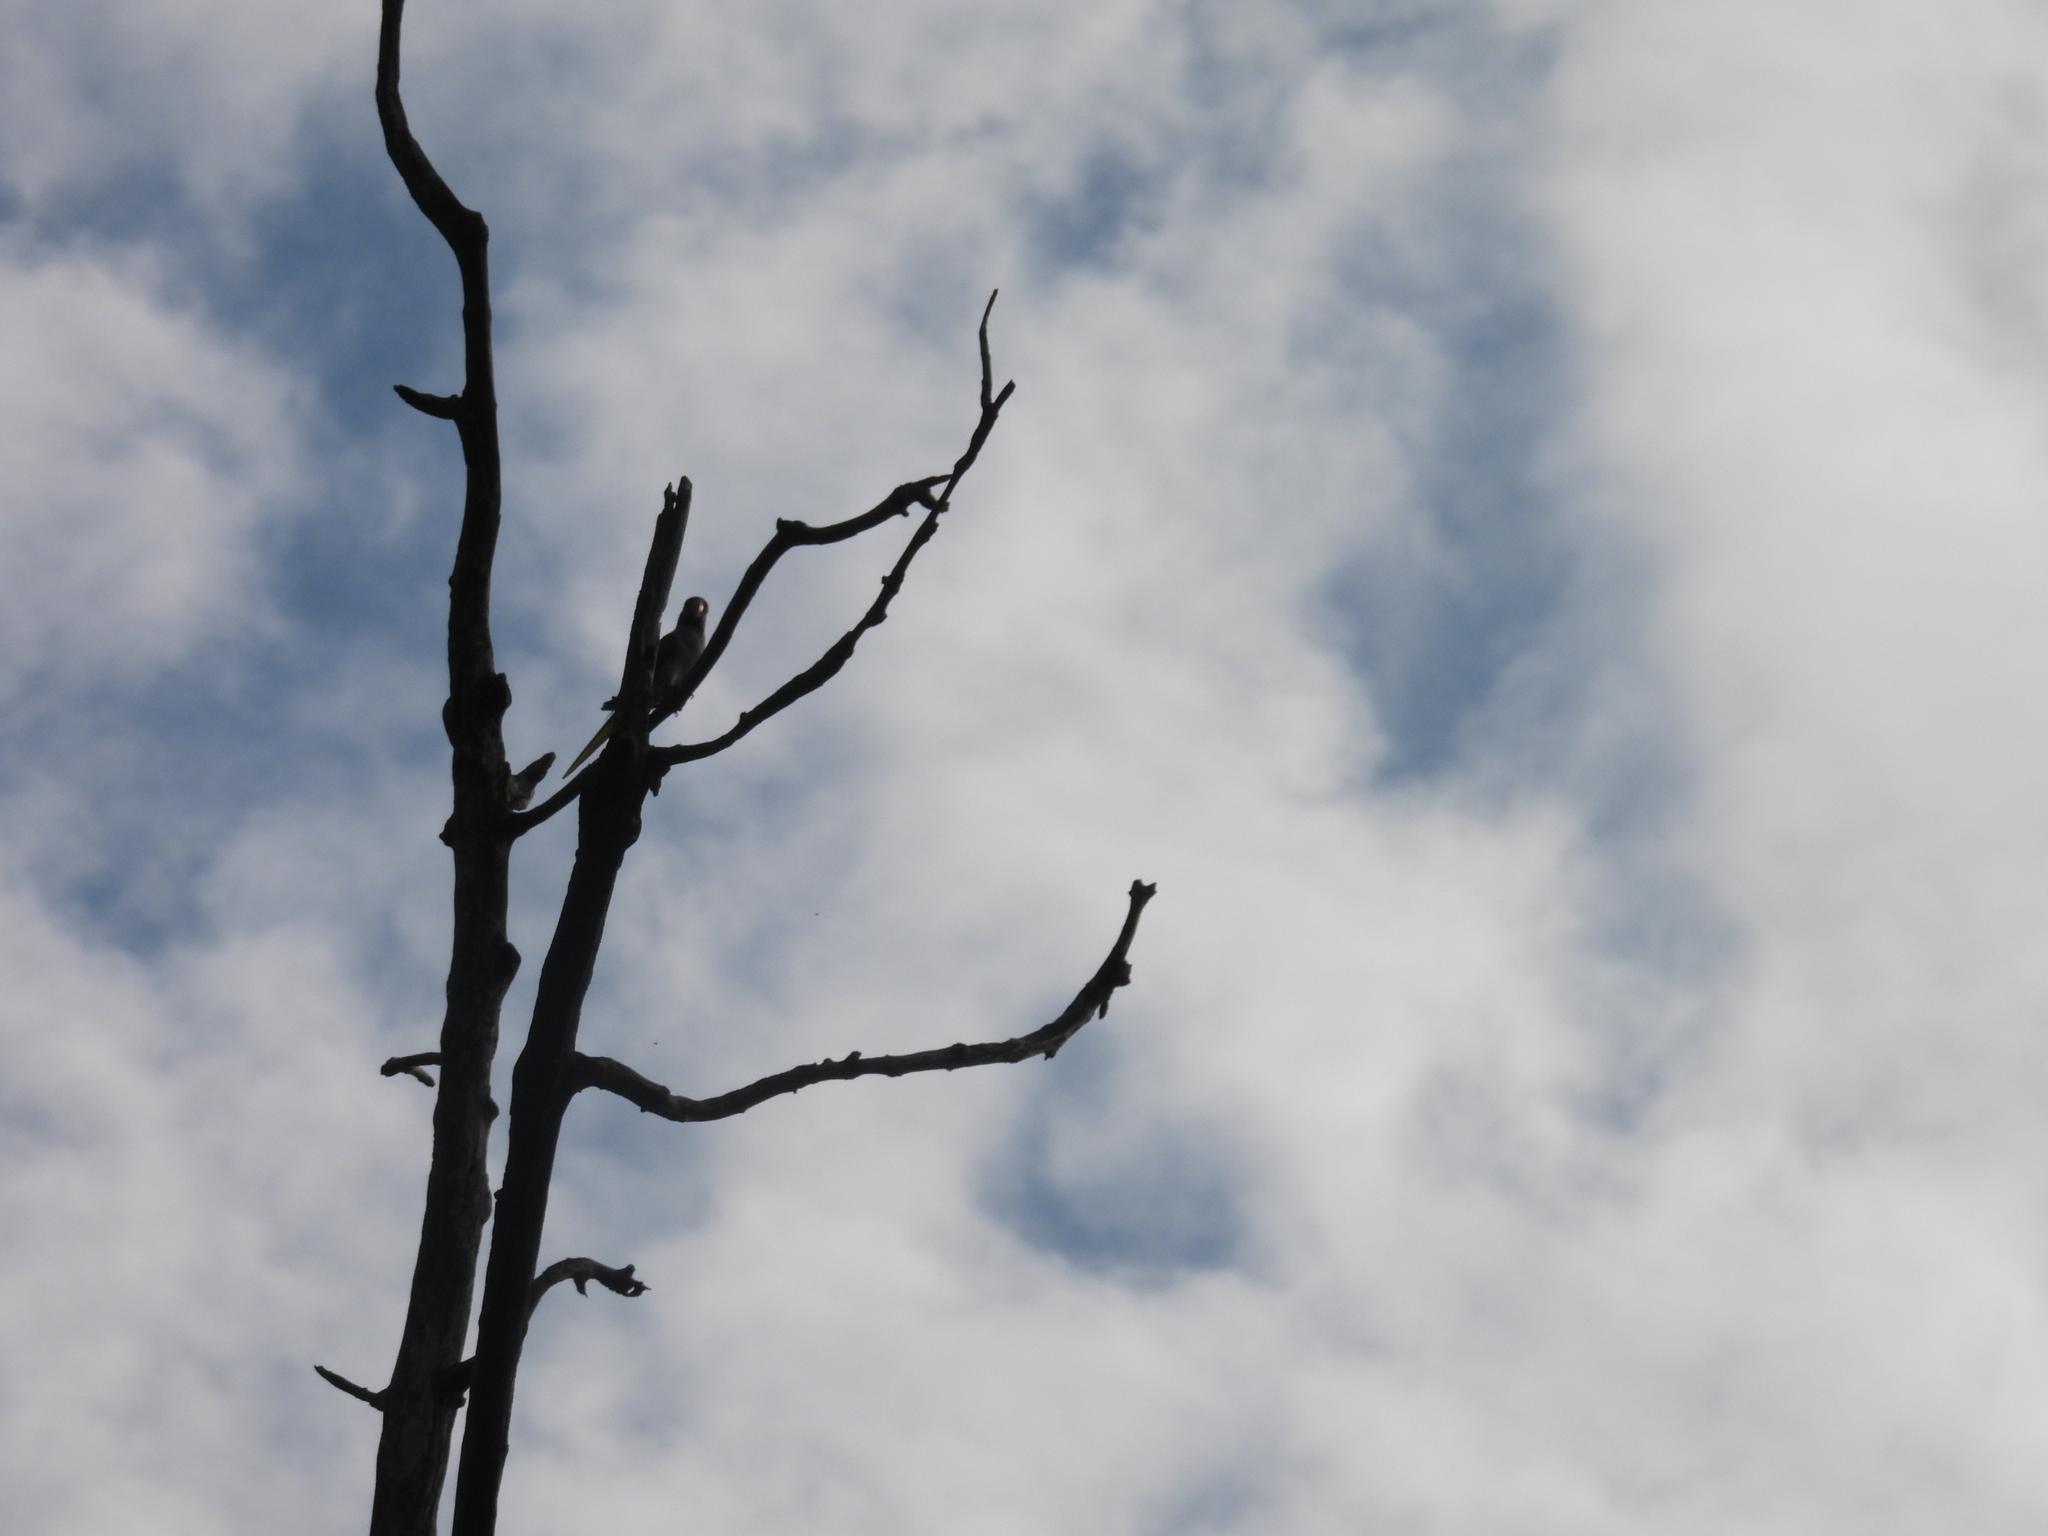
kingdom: Animalia
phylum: Chordata
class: Aves
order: Psittaciformes
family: Psittacidae
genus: Psittacula
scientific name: Psittacula columboides
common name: Blue-winged parakeet
